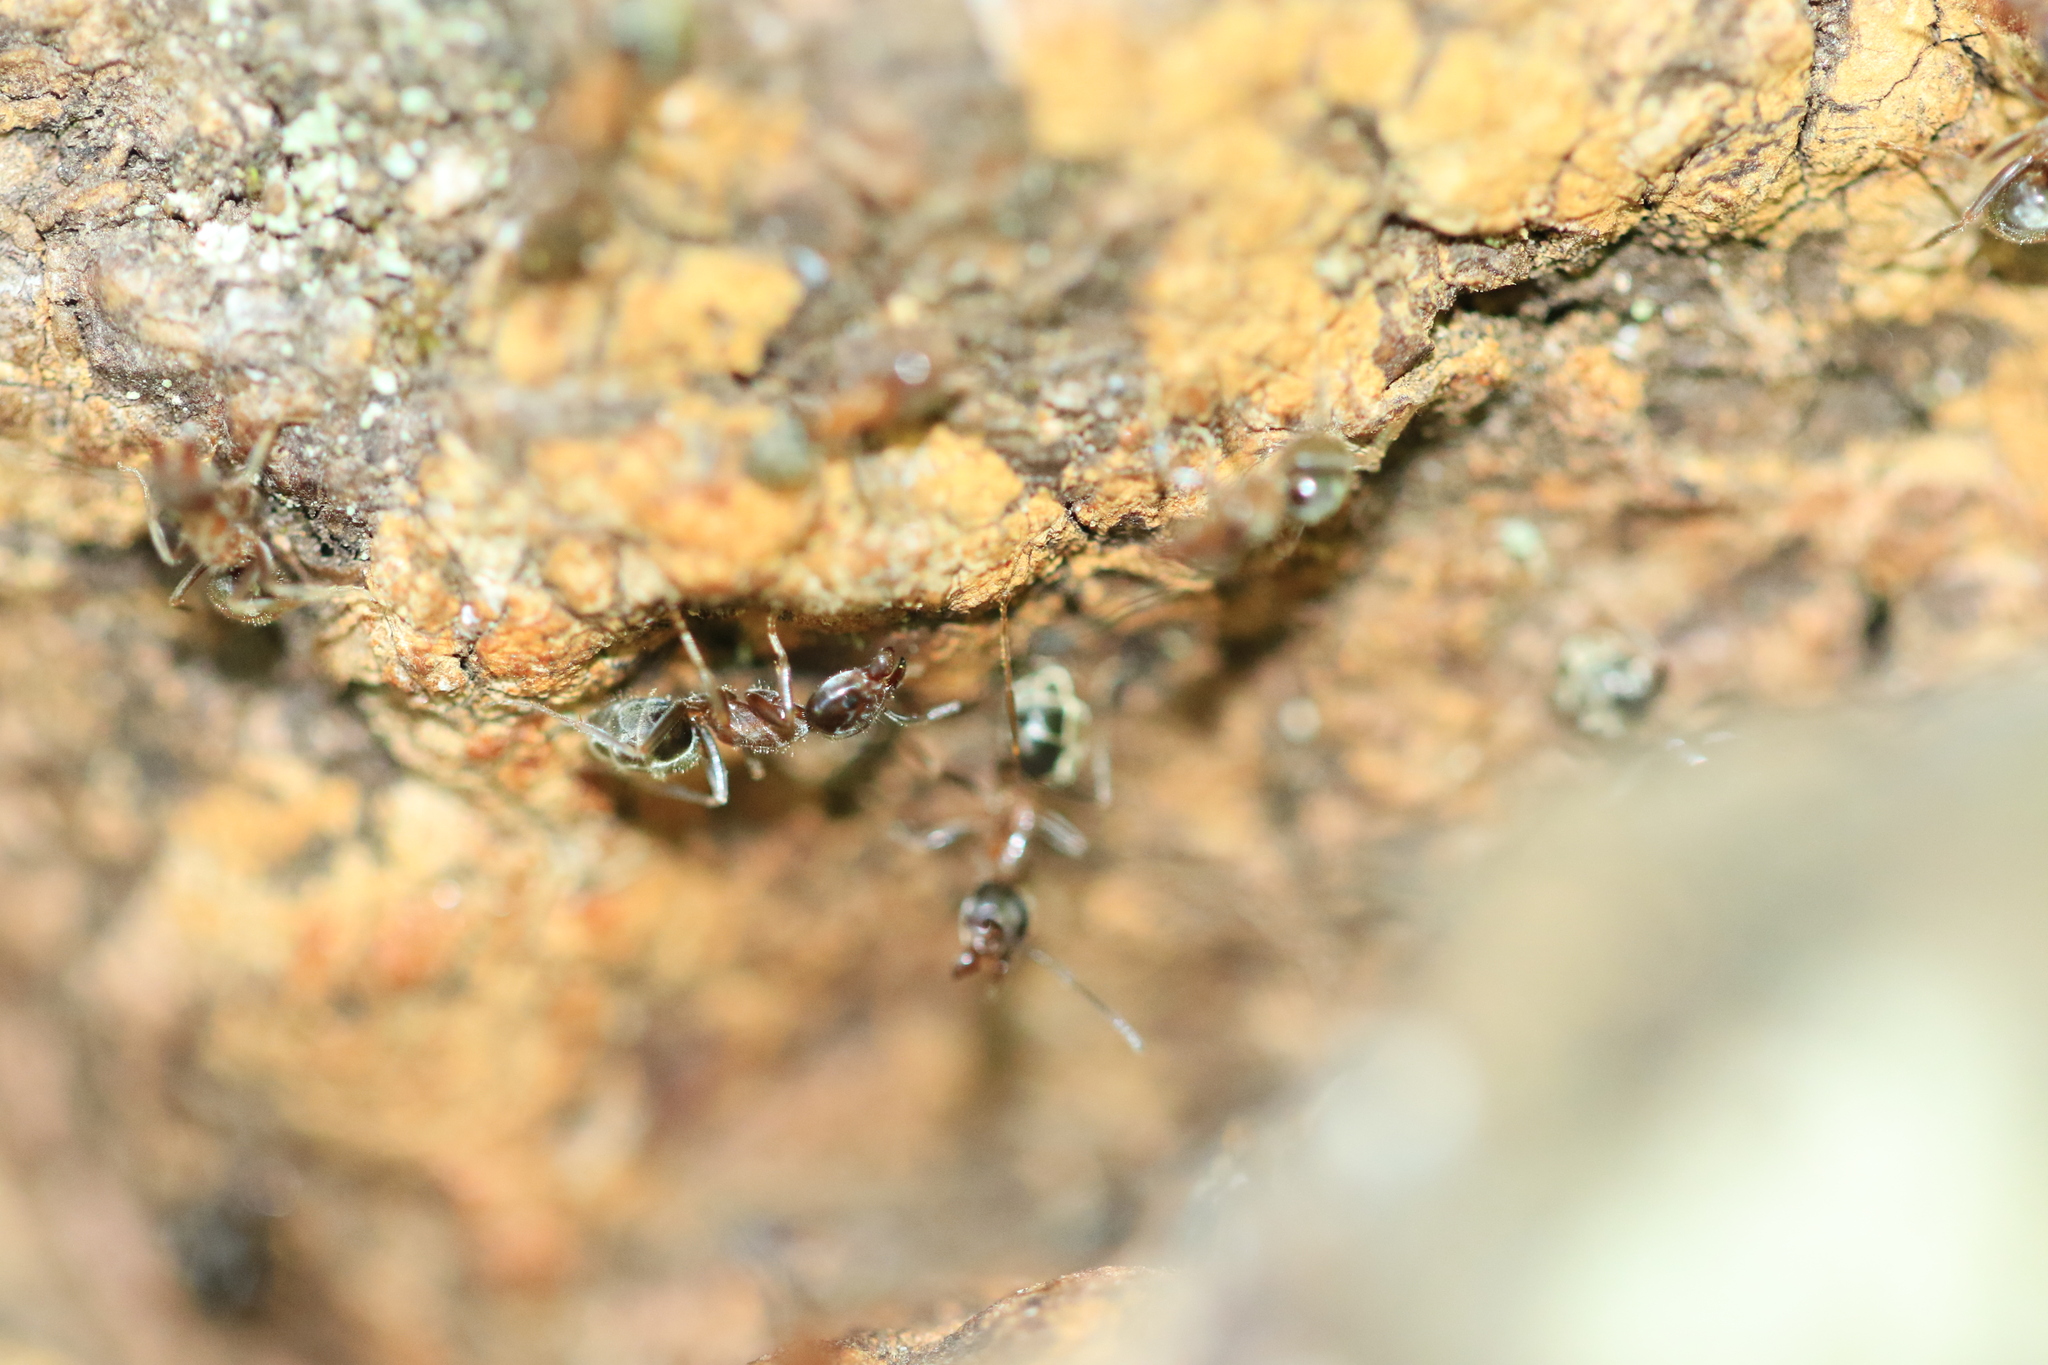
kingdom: Animalia
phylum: Arthropoda
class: Insecta
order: Hymenoptera
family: Formicidae
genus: Liometopum
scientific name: Liometopum occidentale
